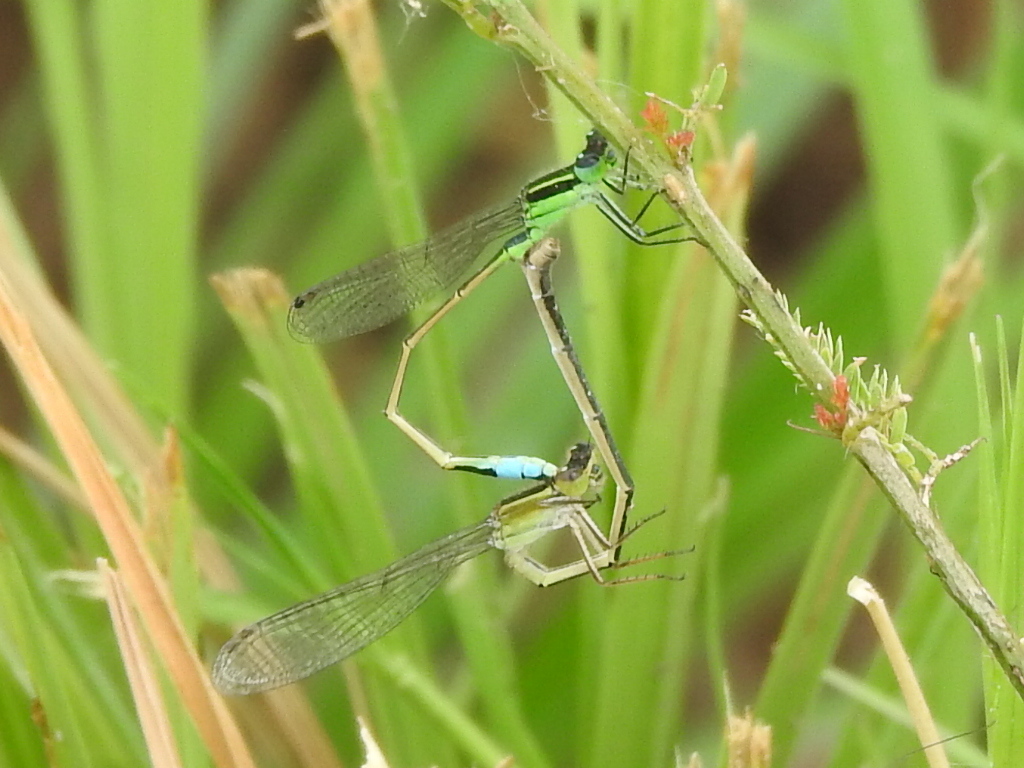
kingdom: Animalia
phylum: Arthropoda
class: Insecta
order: Odonata
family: Coenagrionidae
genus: Ischnura
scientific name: Ischnura ramburii
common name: Rambur's forktail
